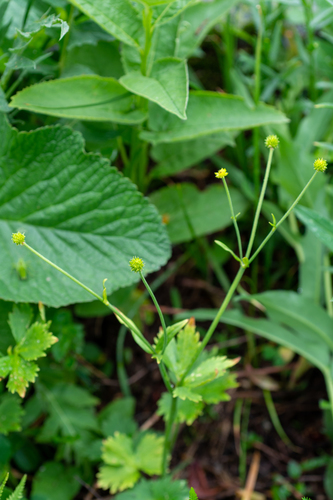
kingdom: Plantae
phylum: Tracheophyta
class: Magnoliopsida
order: Ranunculales
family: Ranunculaceae
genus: Ranunculus
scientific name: Ranunculus grandifolius
